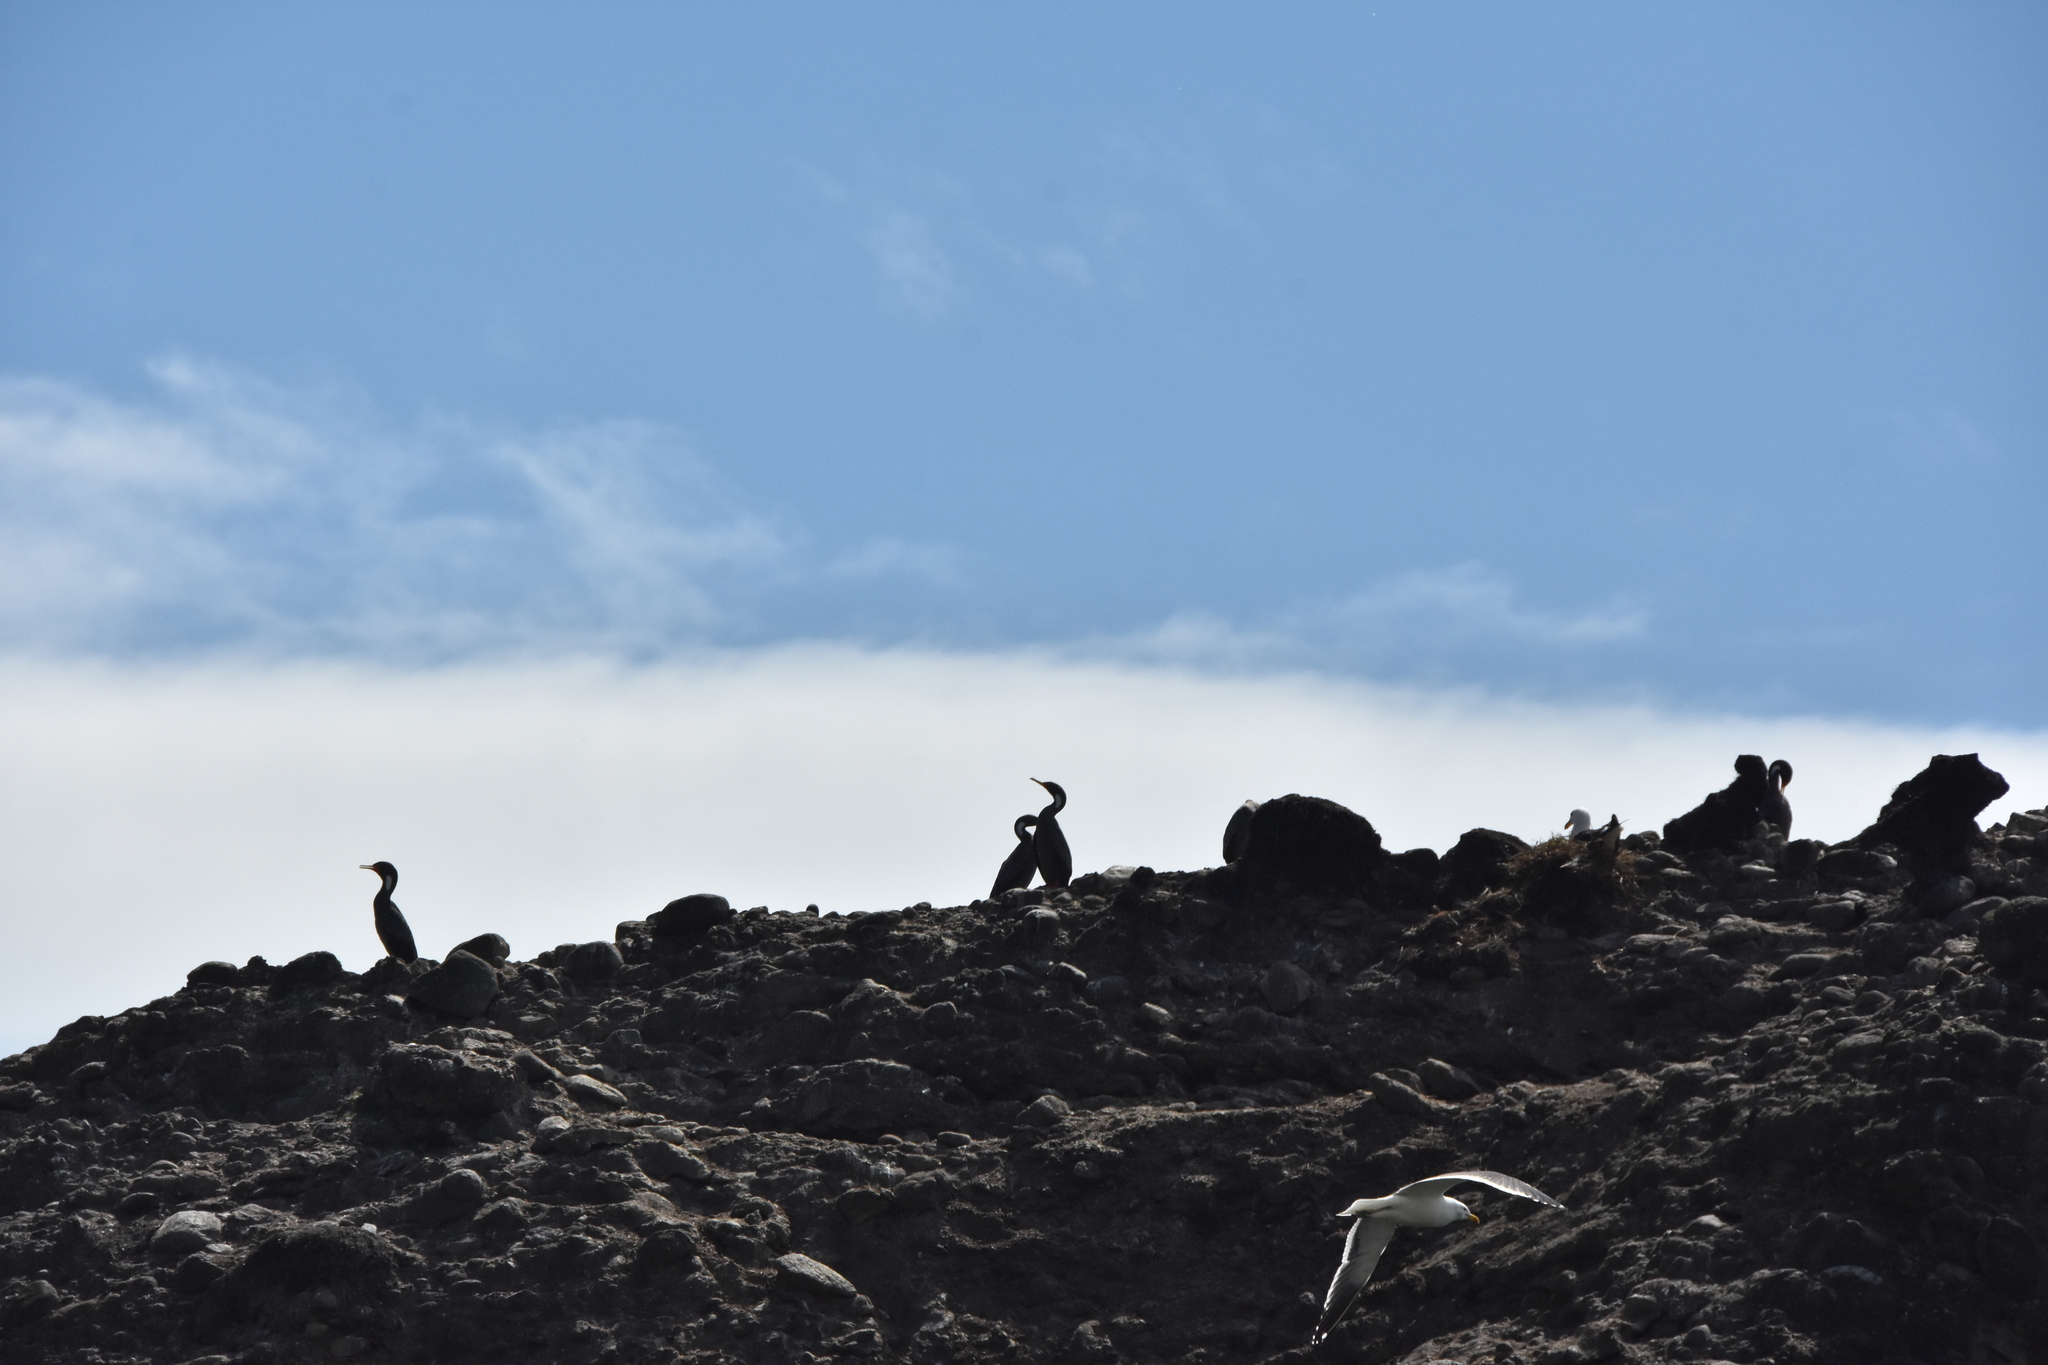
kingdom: Animalia
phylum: Chordata
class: Aves
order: Charadriiformes
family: Laridae
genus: Larus
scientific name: Larus dominicanus
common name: Kelp gull
